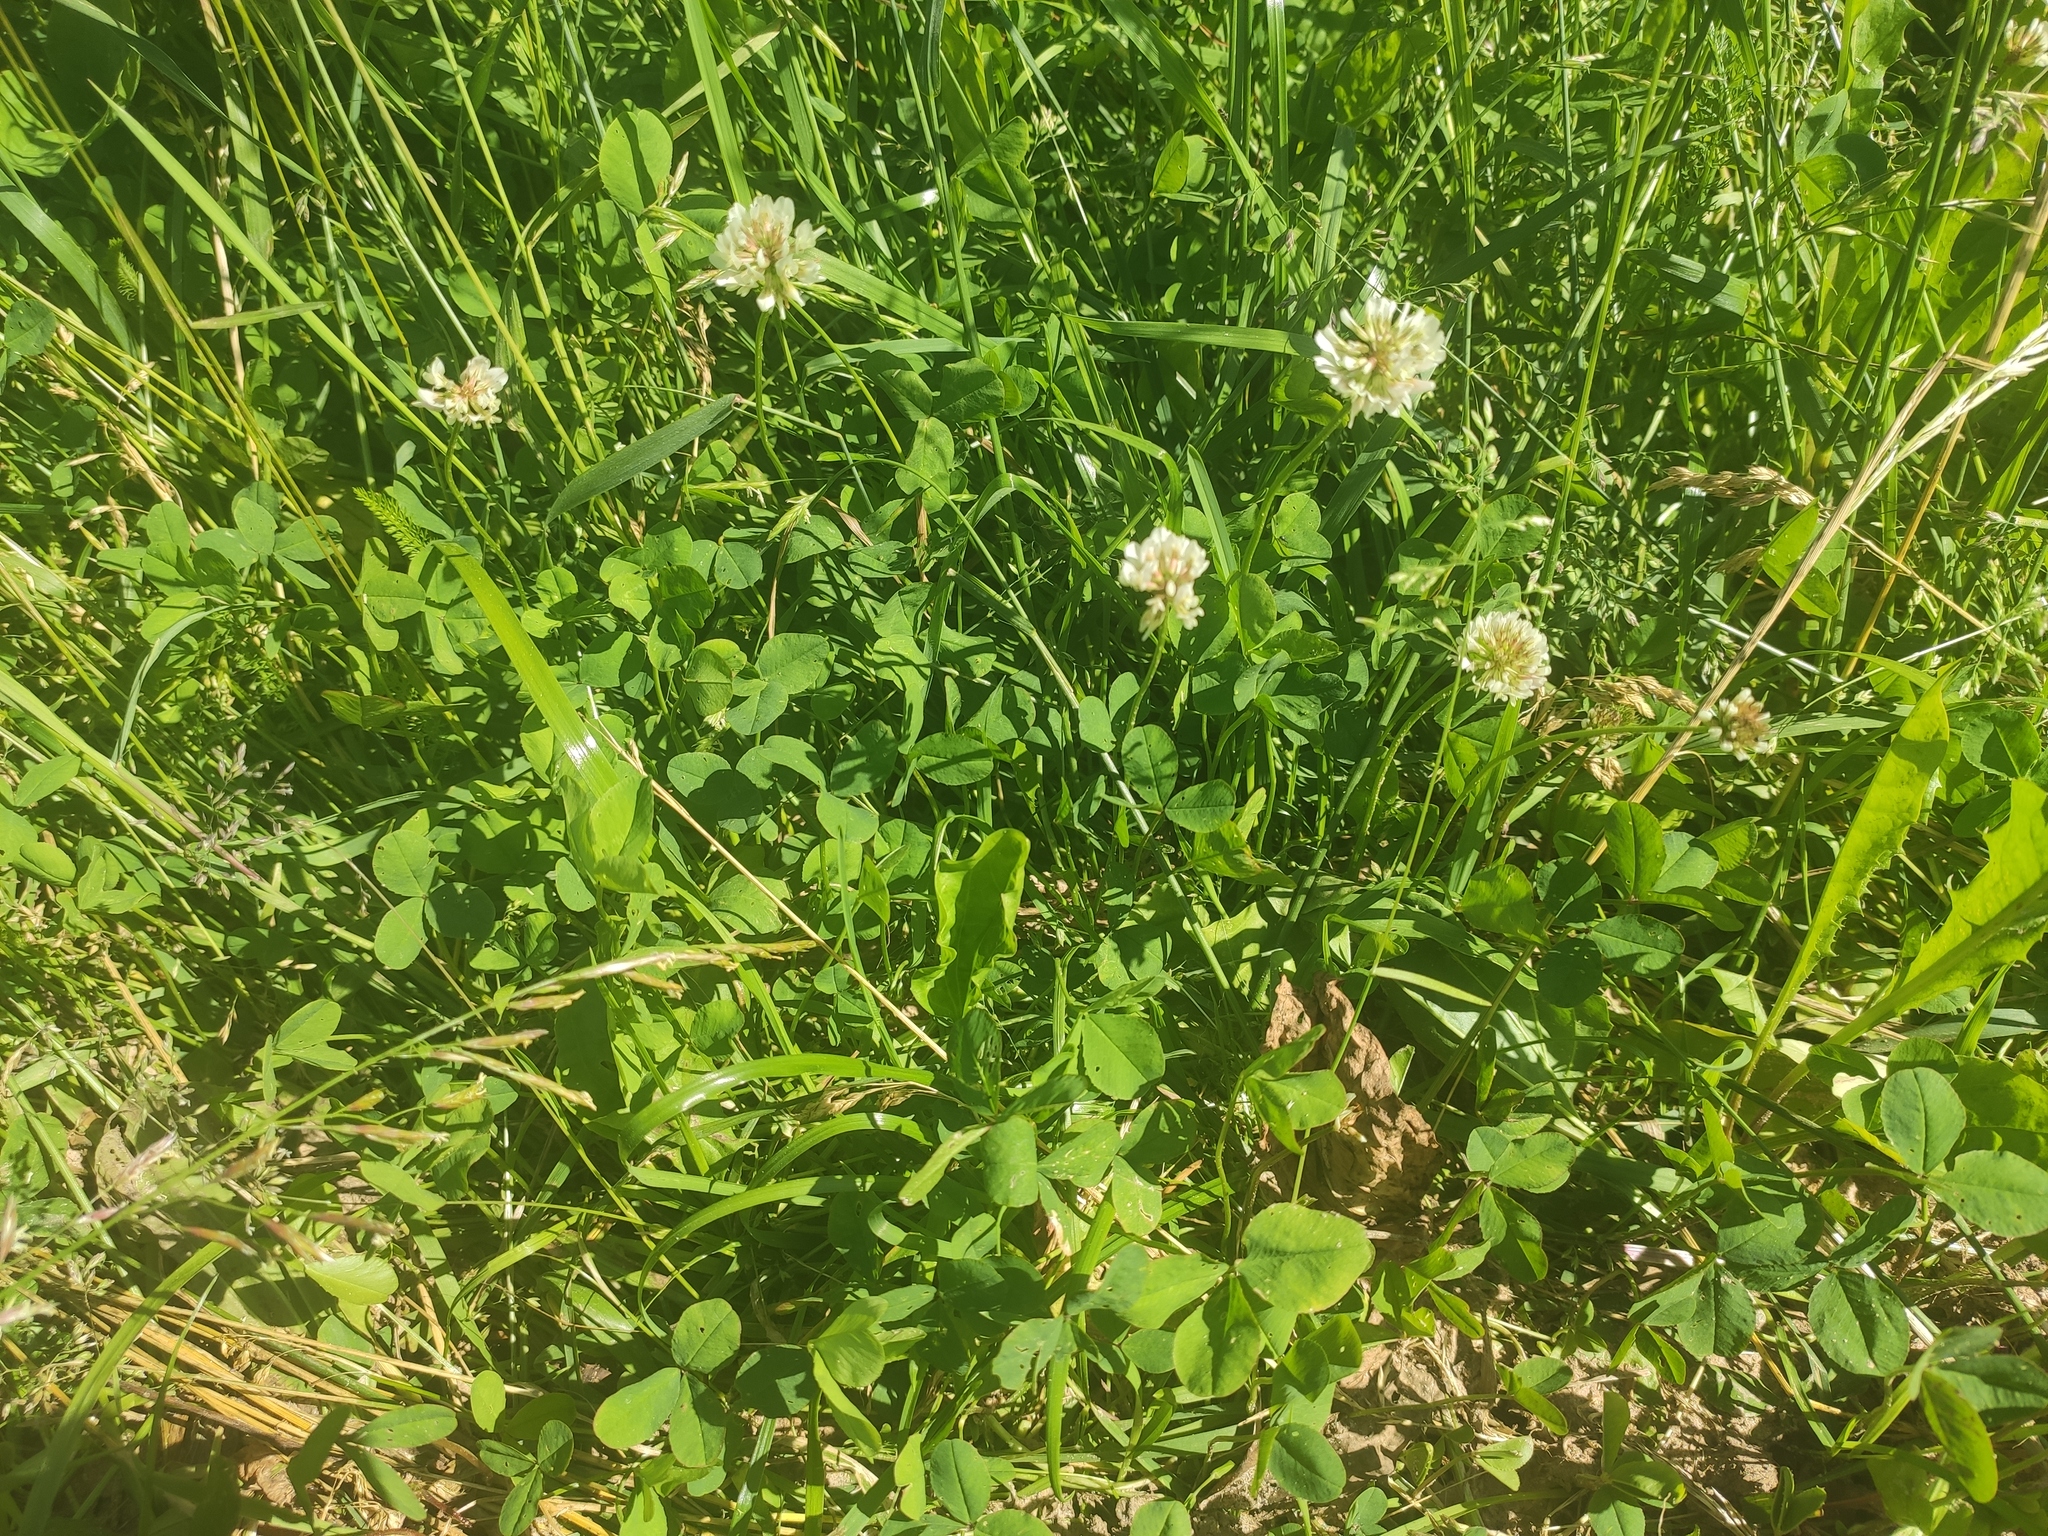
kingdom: Plantae
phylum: Tracheophyta
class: Magnoliopsida
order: Fabales
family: Fabaceae
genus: Trifolium
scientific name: Trifolium repens
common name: White clover
